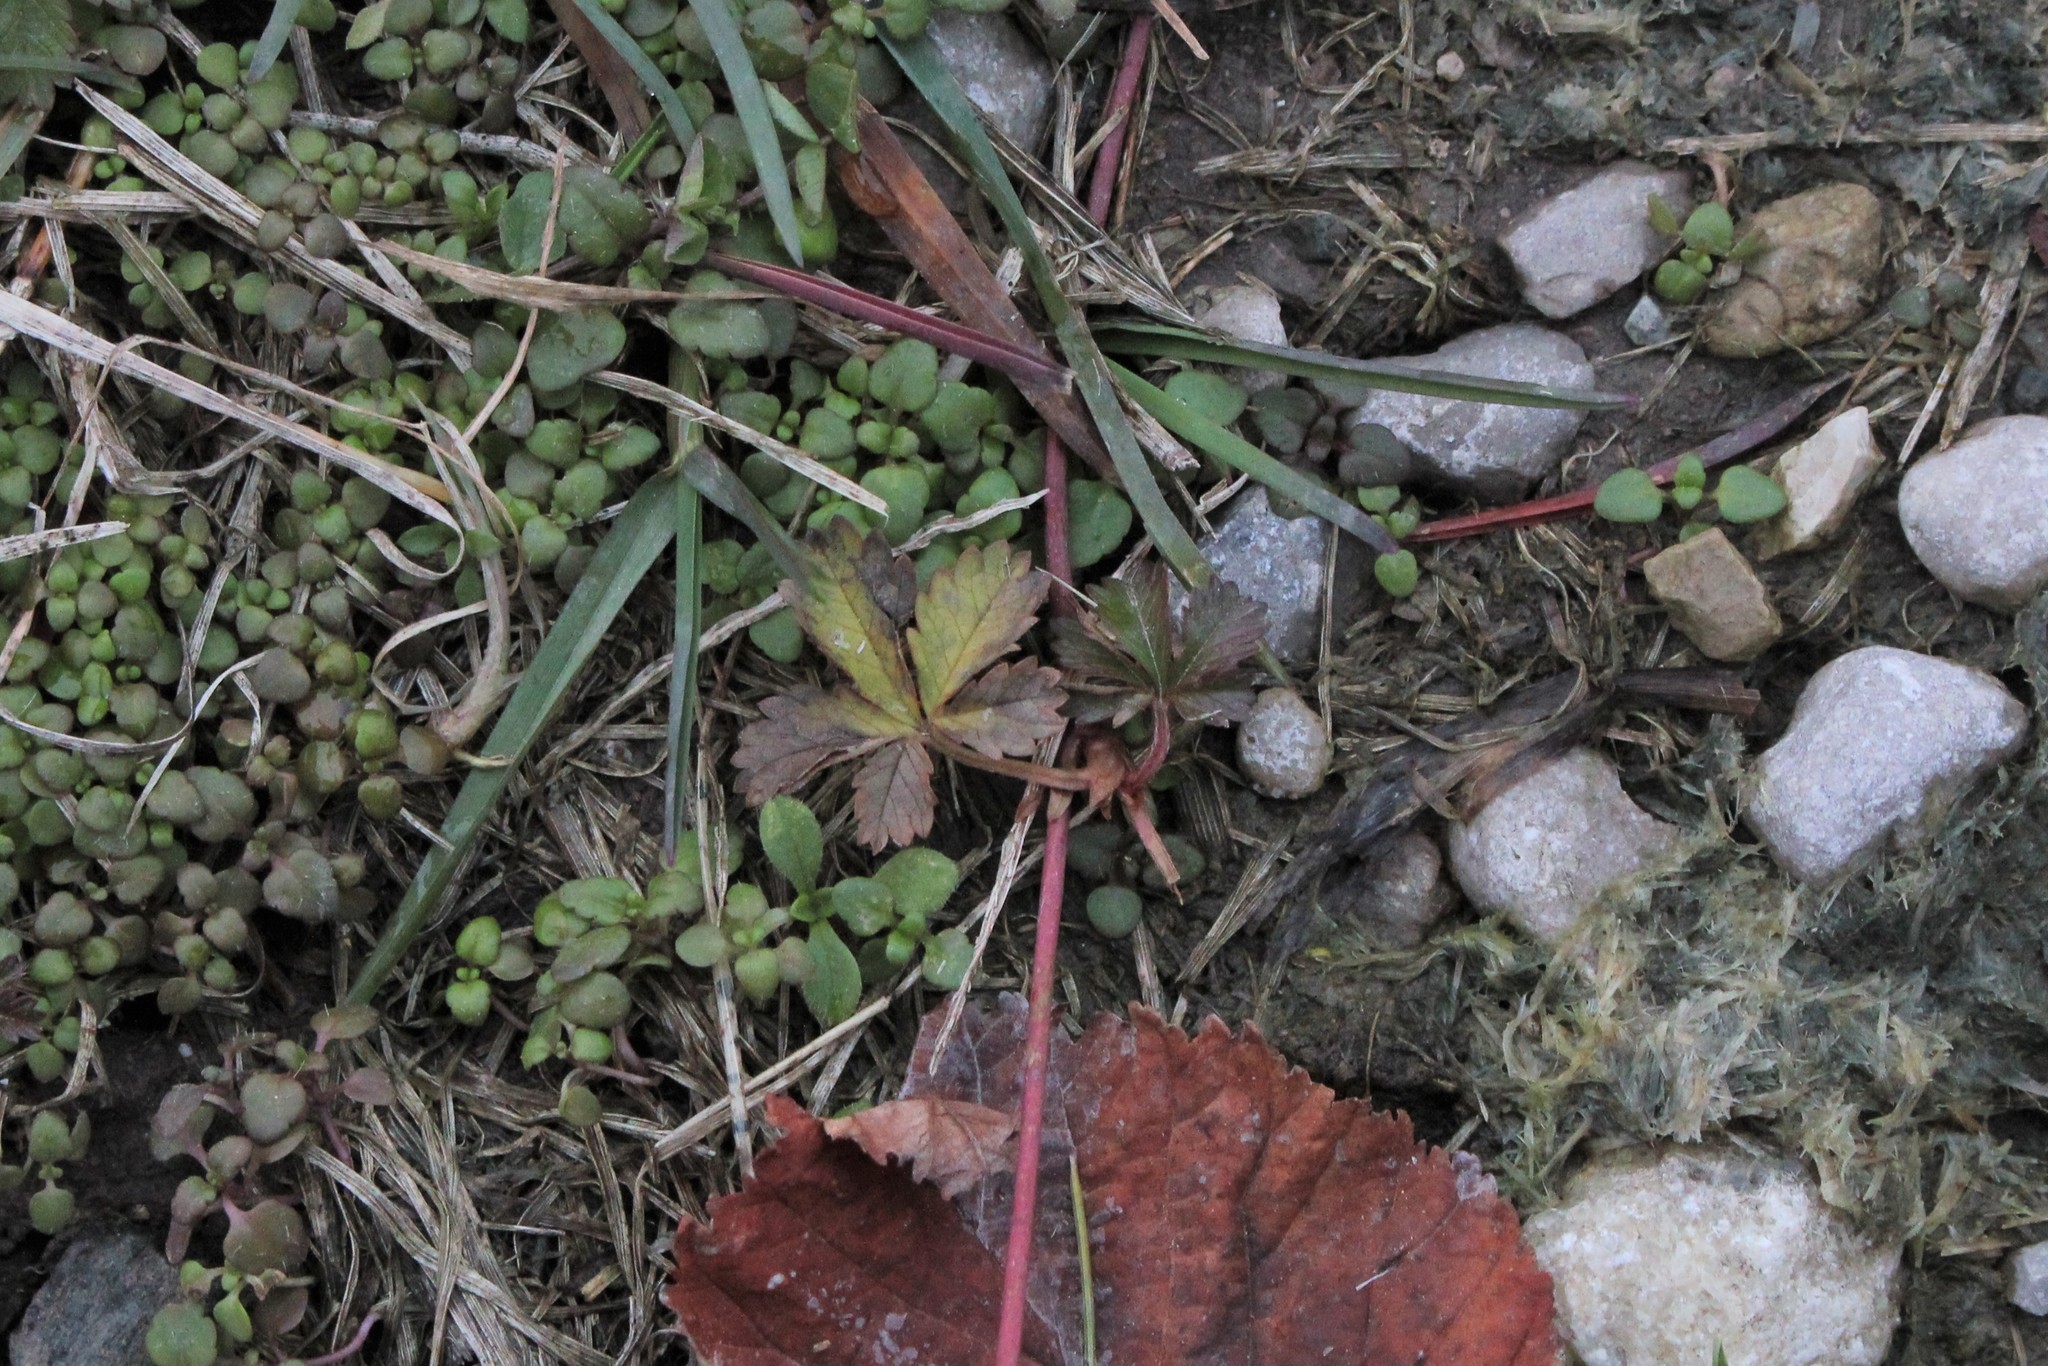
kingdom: Plantae
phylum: Tracheophyta
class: Magnoliopsida
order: Rosales
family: Rosaceae
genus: Potentilla
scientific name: Potentilla reptans
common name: Creeping cinquefoil
